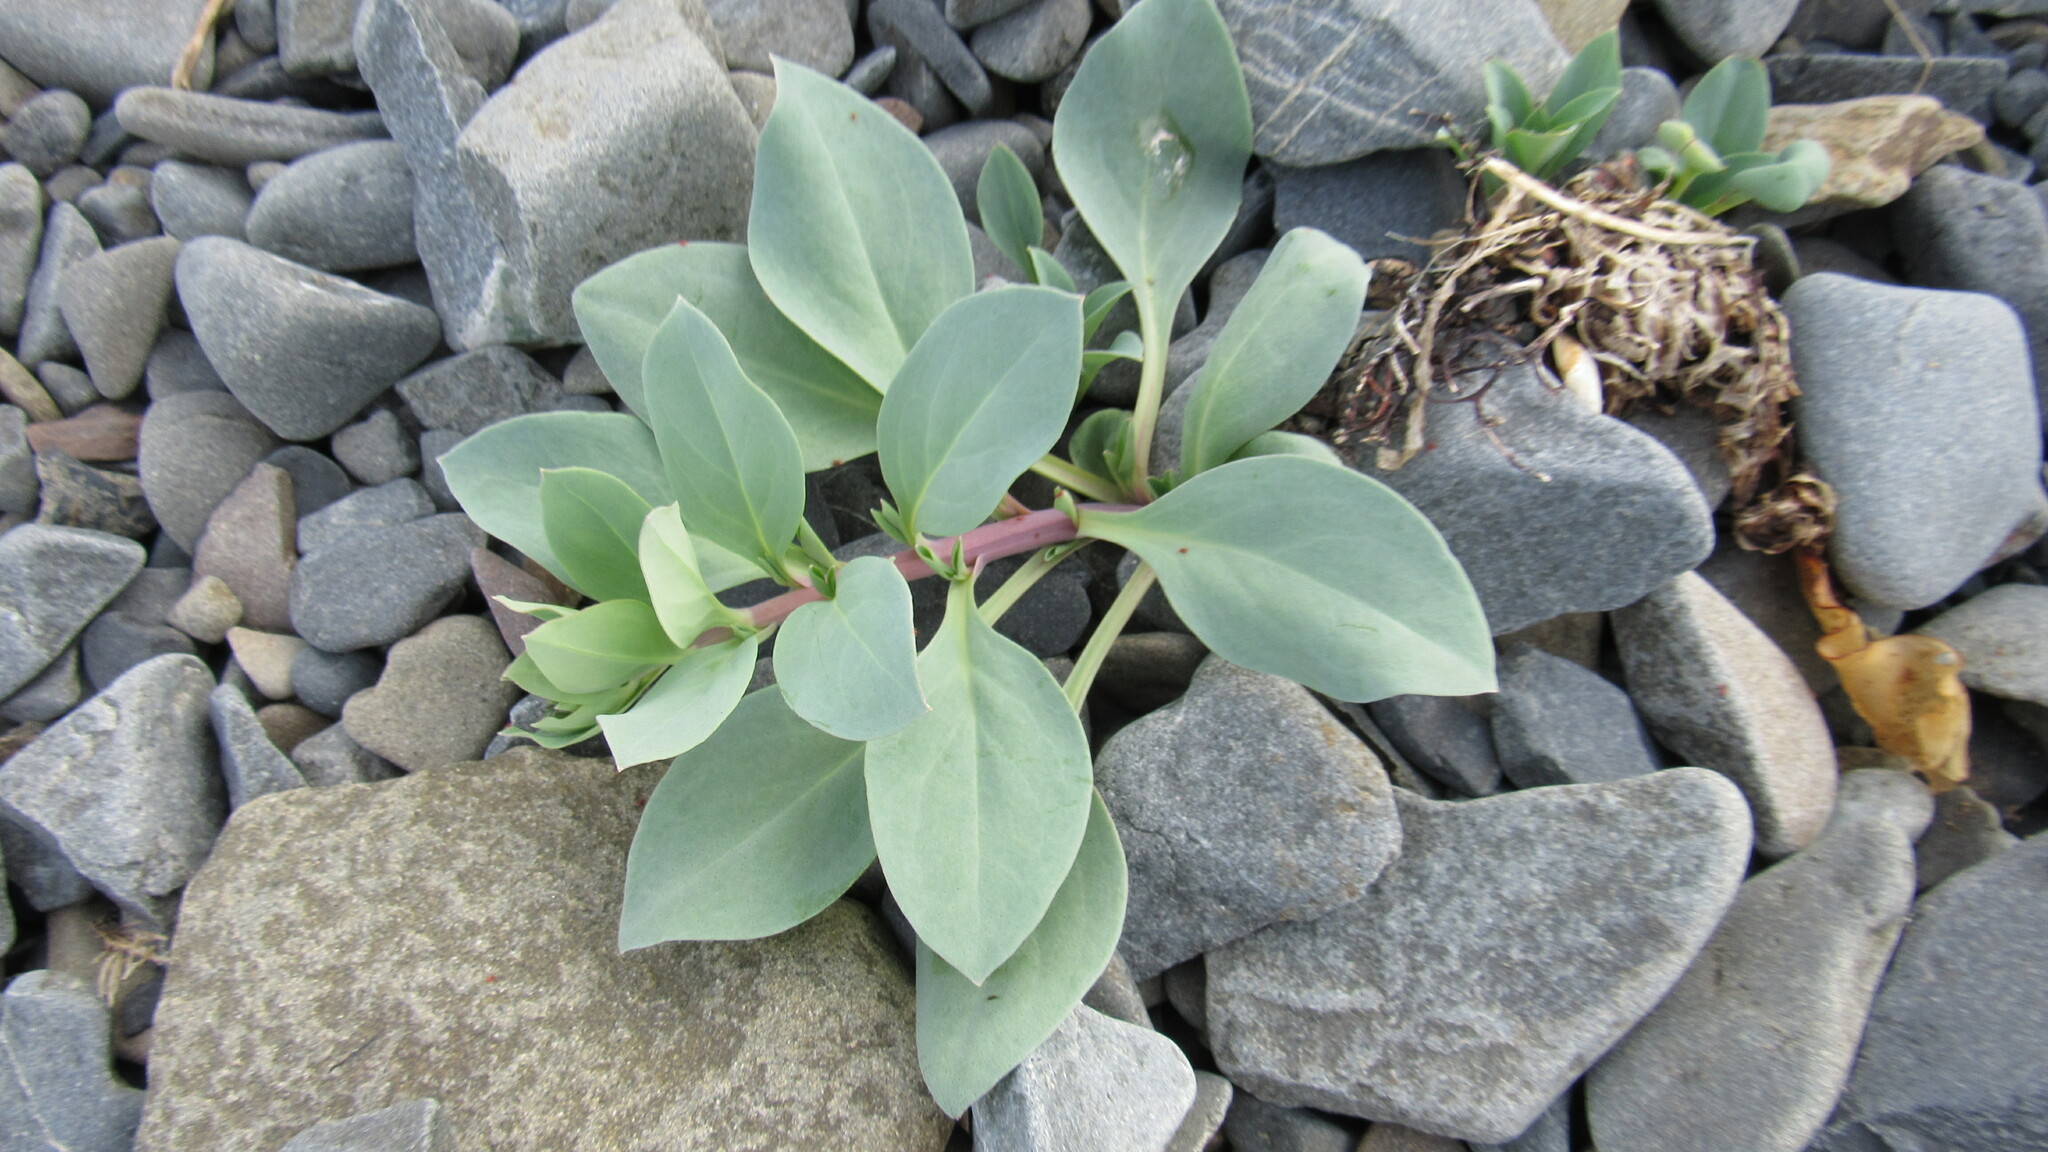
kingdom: Plantae
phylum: Tracheophyta
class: Magnoliopsida
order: Boraginales
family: Boraginaceae
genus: Mertensia
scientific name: Mertensia maritima
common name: Oysterplant
